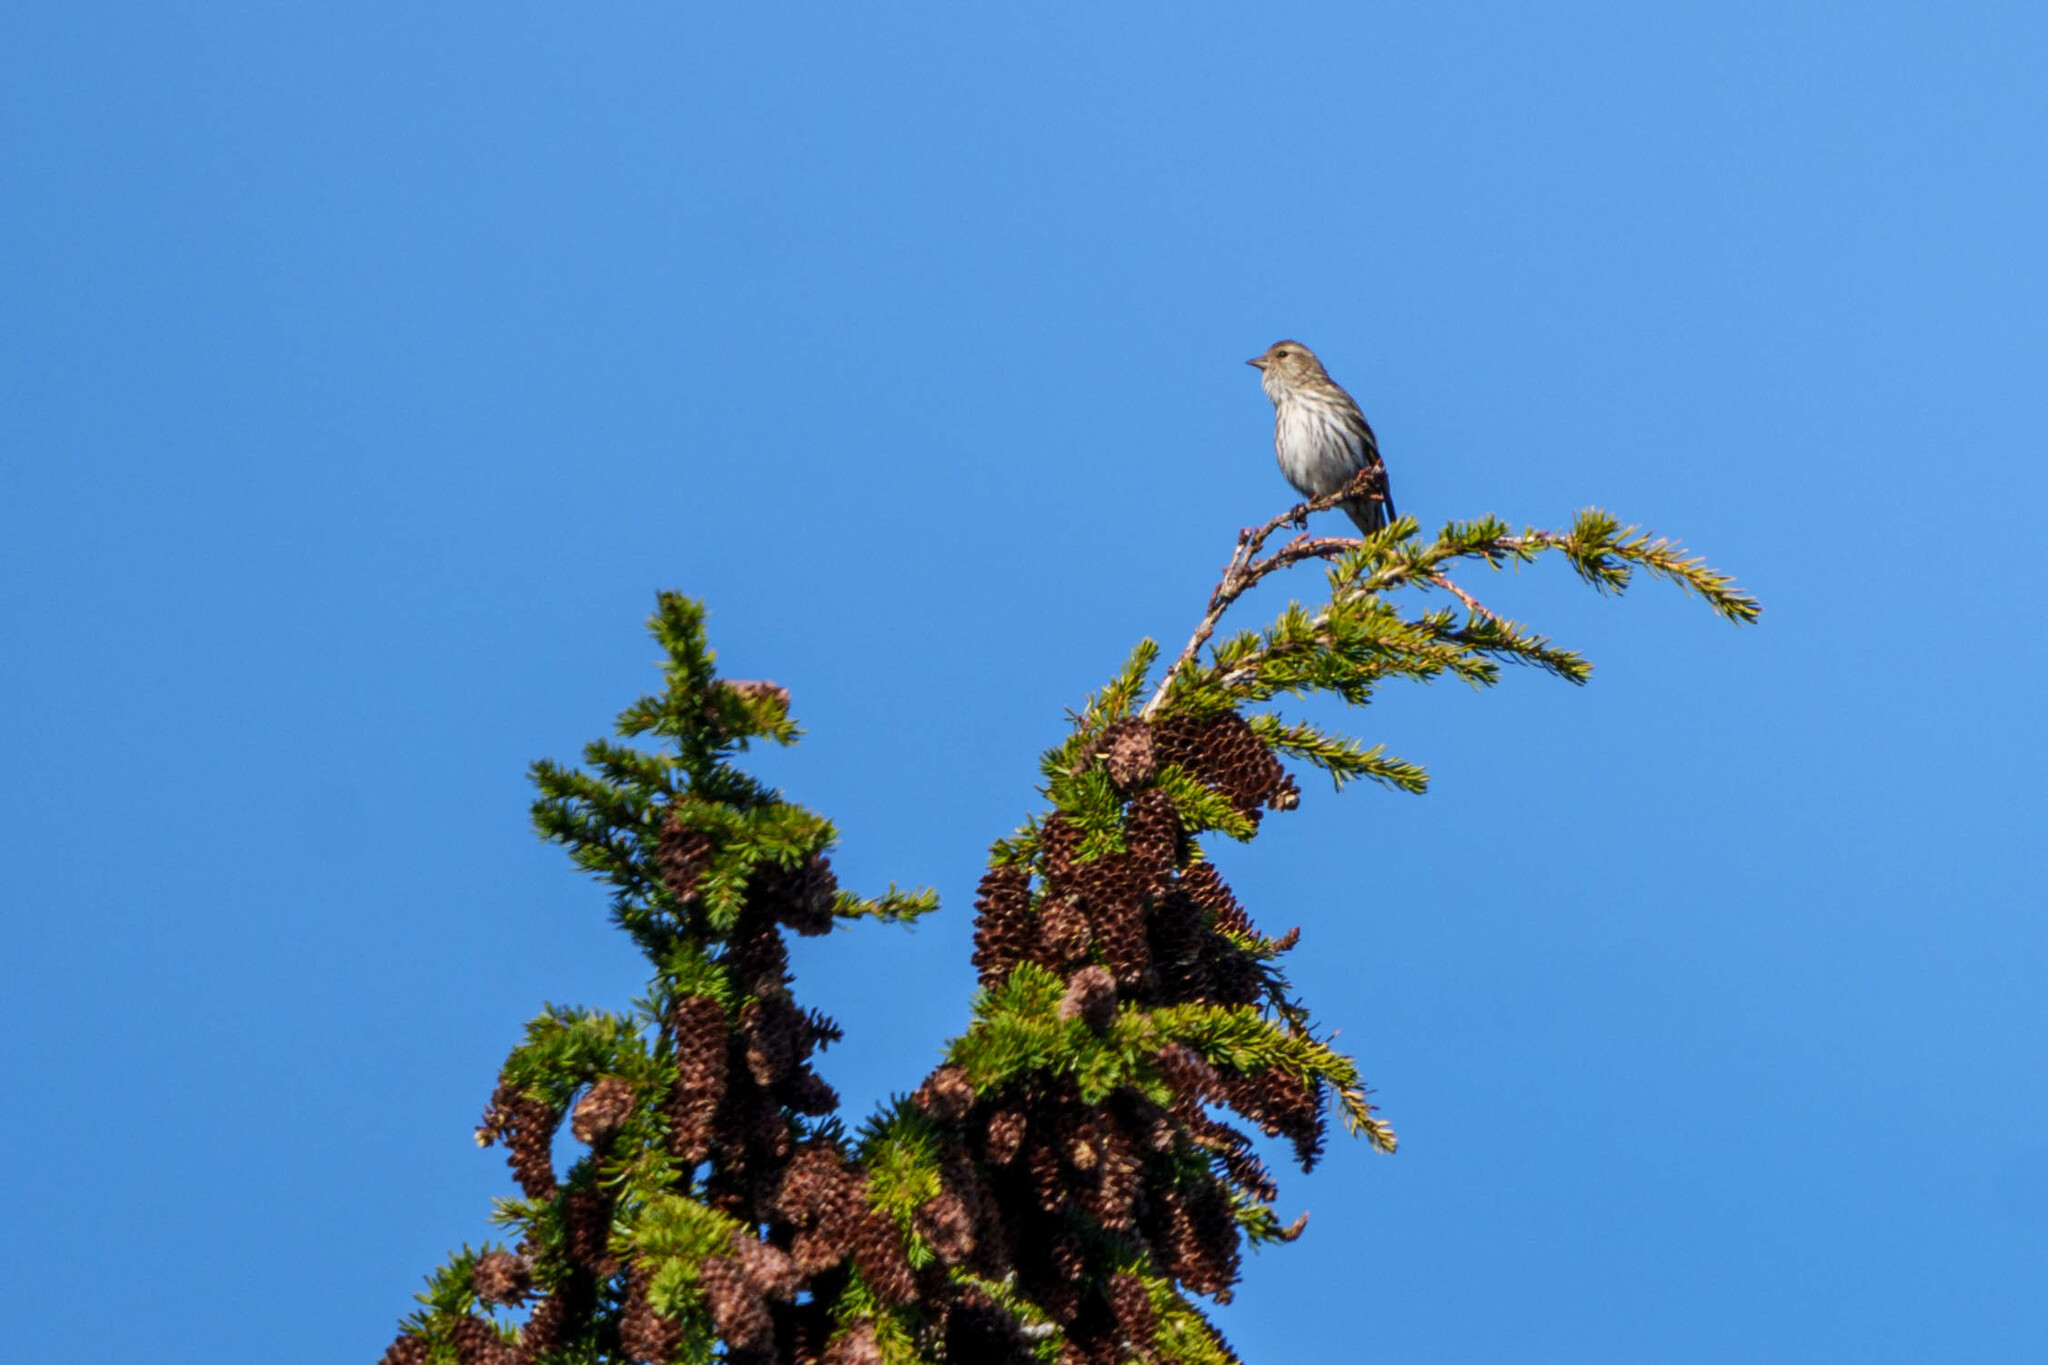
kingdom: Animalia
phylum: Chordata
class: Aves
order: Passeriformes
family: Fringillidae
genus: Spinus
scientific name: Spinus pinus
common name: Pine siskin
